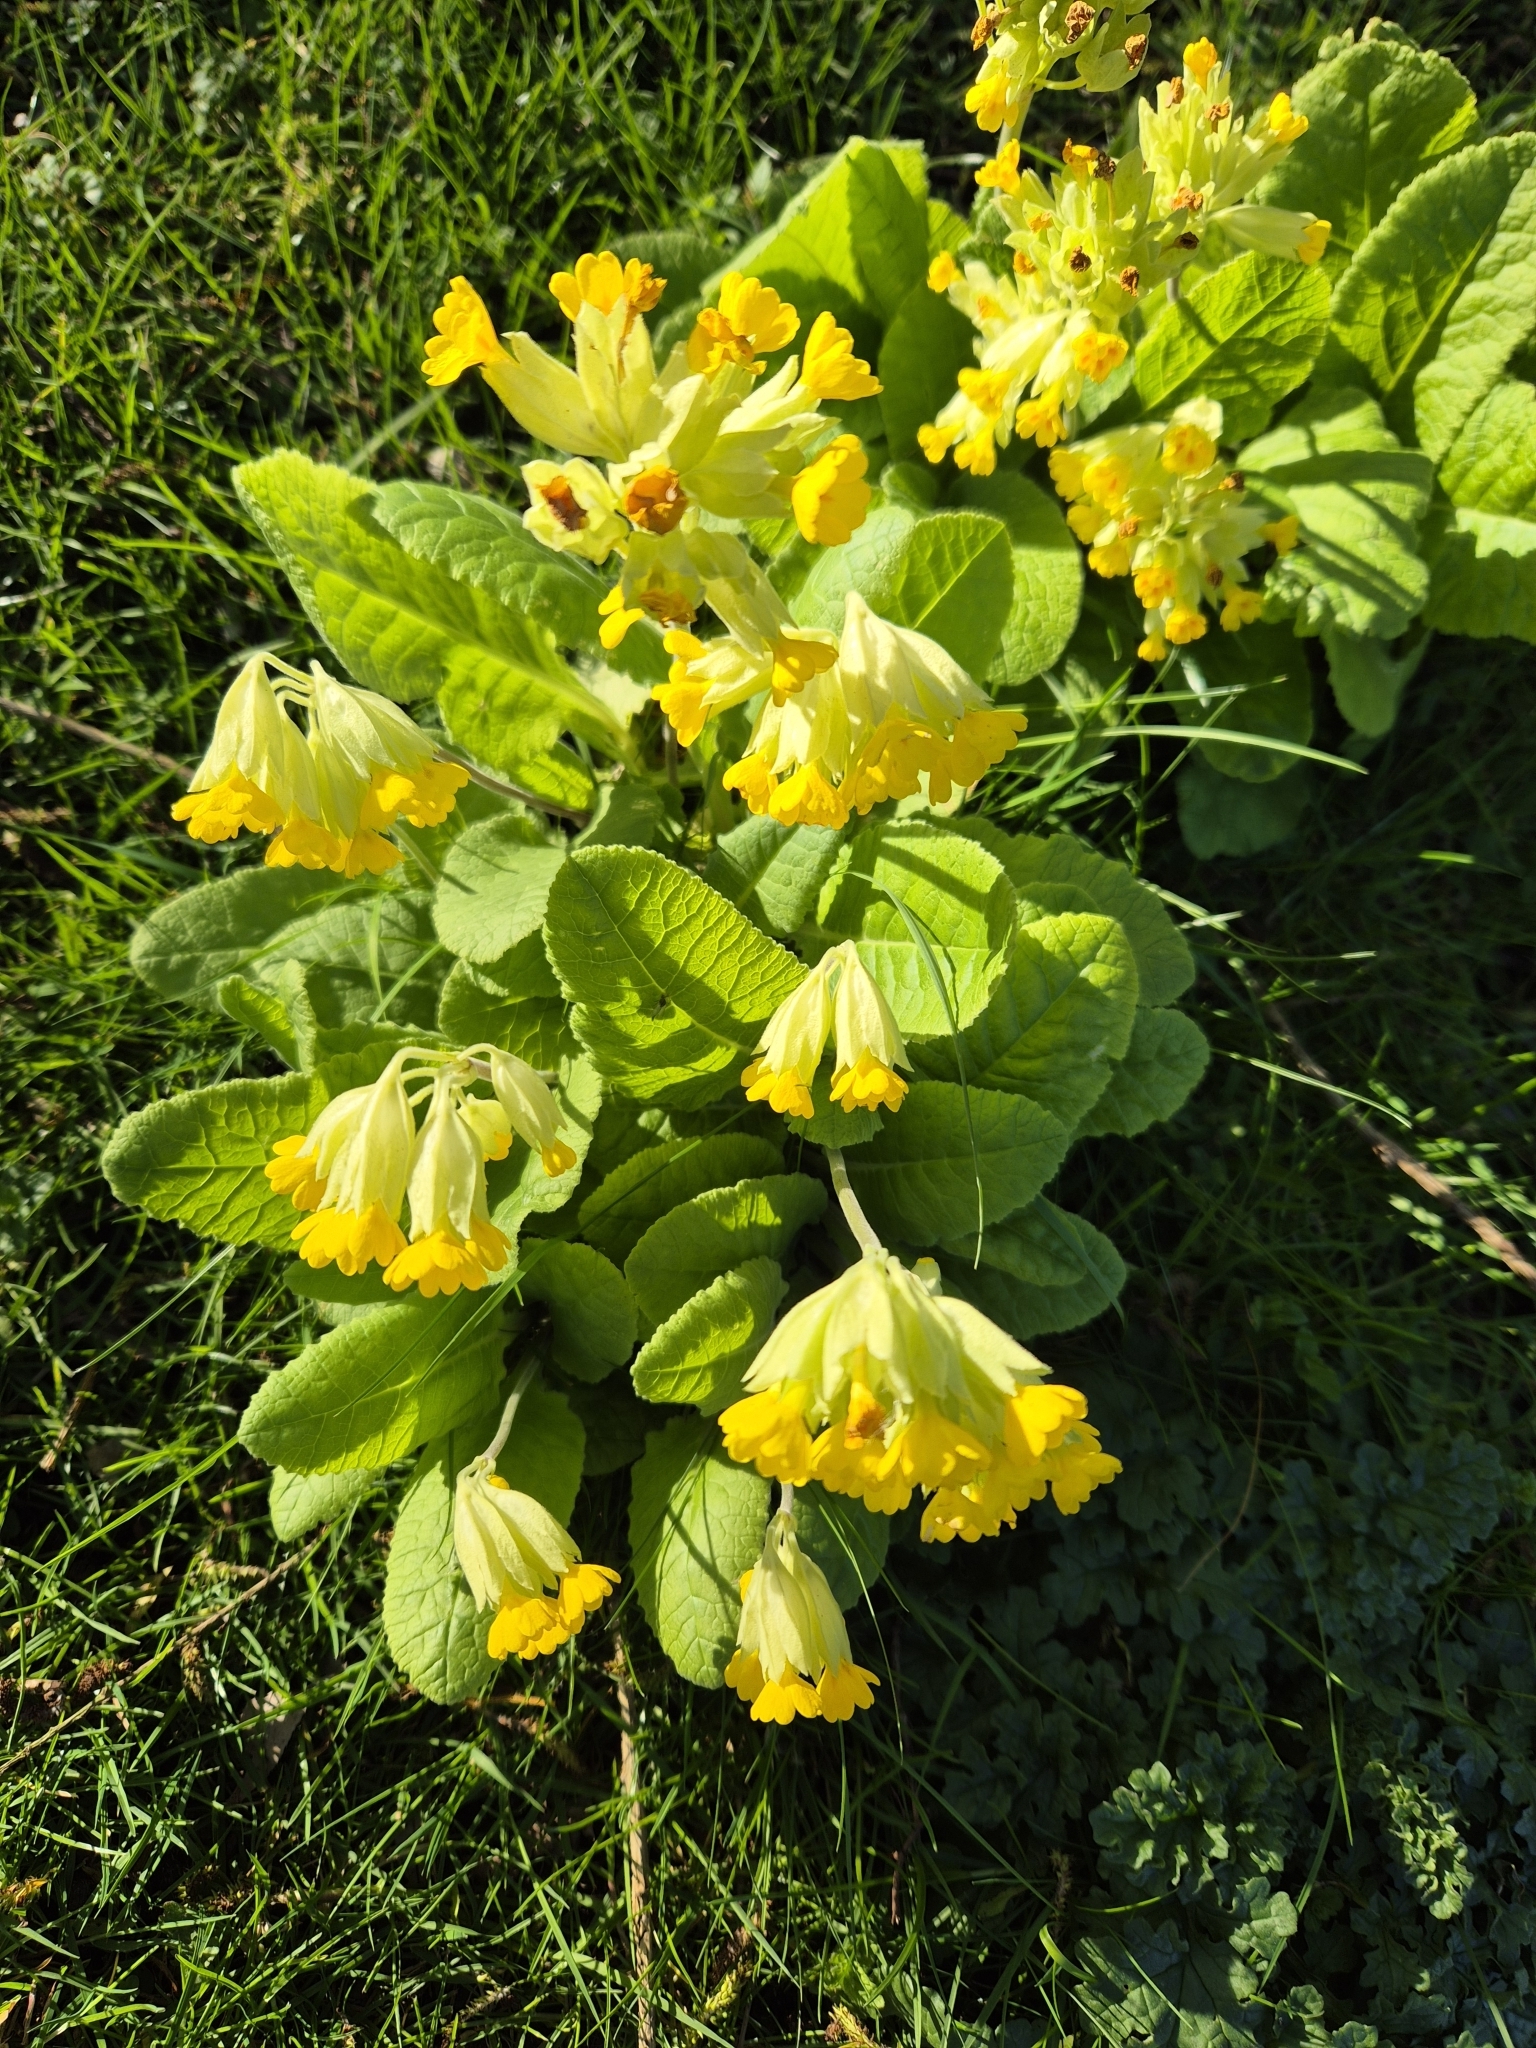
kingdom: Plantae
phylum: Tracheophyta
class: Magnoliopsida
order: Ericales
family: Primulaceae
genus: Primula
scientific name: Primula veris
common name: Cowslip
